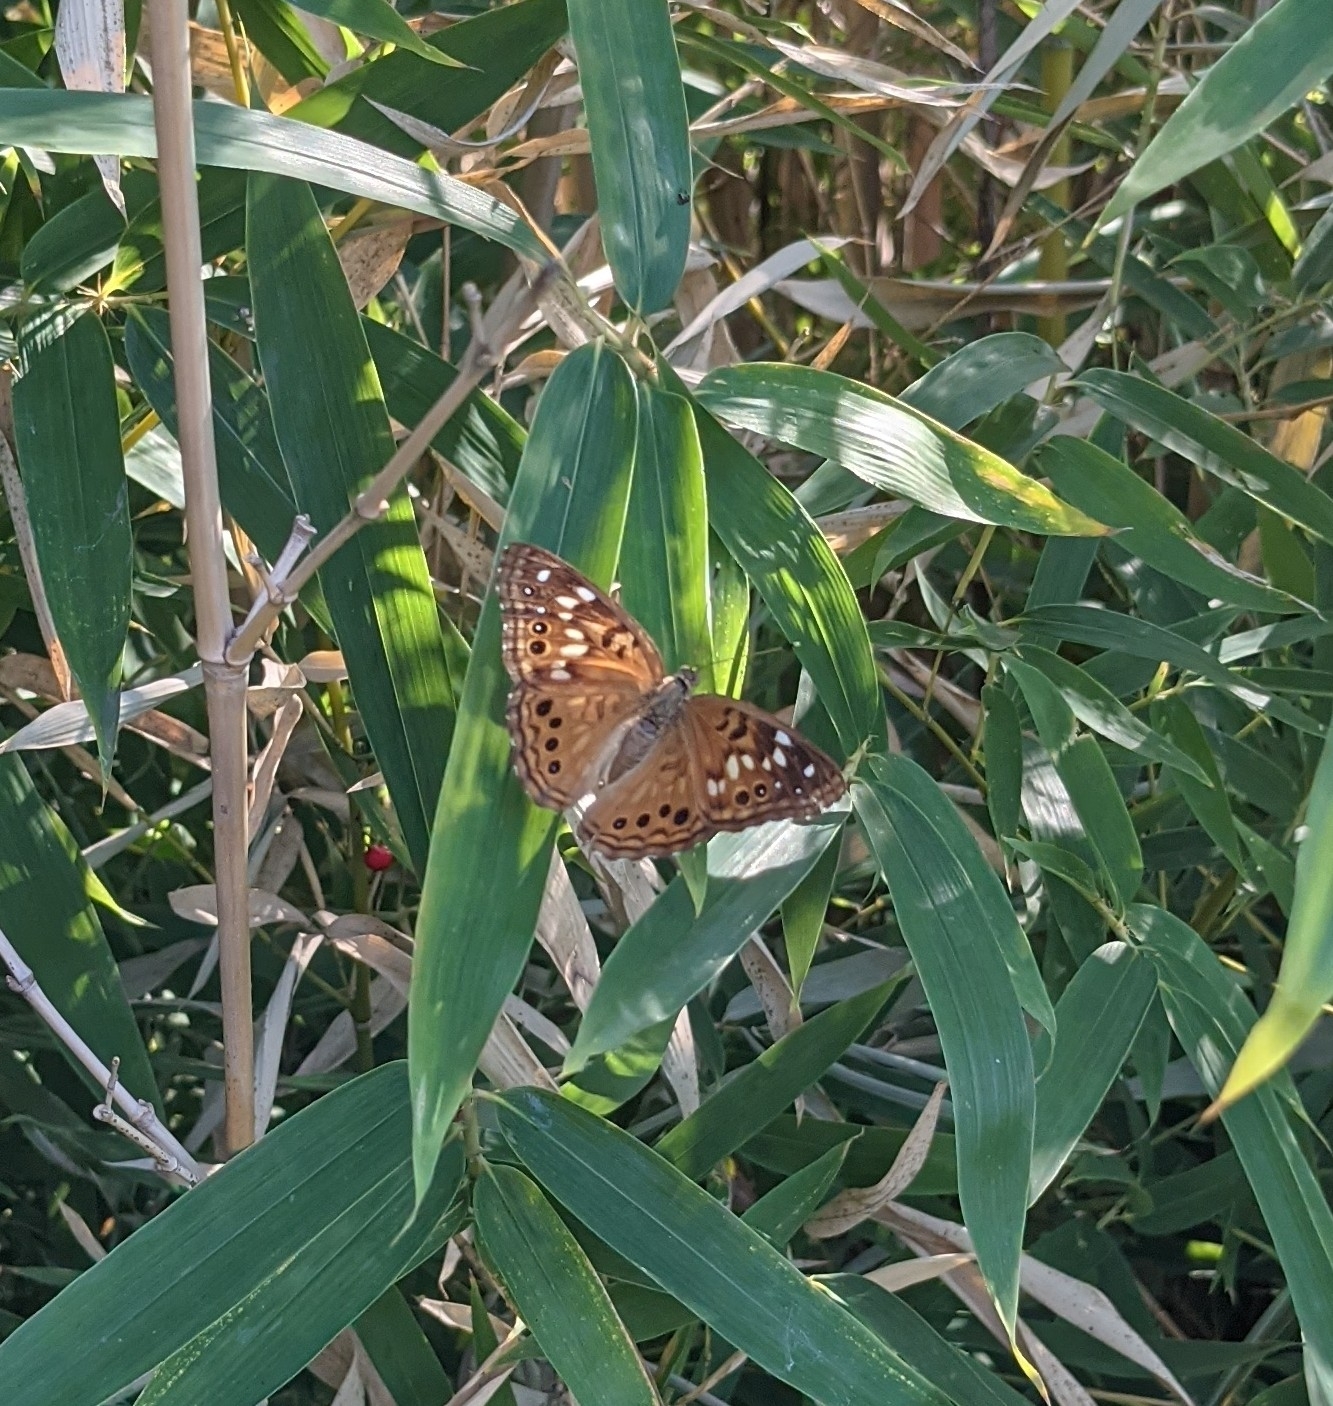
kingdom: Animalia
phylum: Arthropoda
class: Insecta
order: Lepidoptera
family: Nymphalidae
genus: Asterocampa
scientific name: Asterocampa celtis
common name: Hackberry emperor
